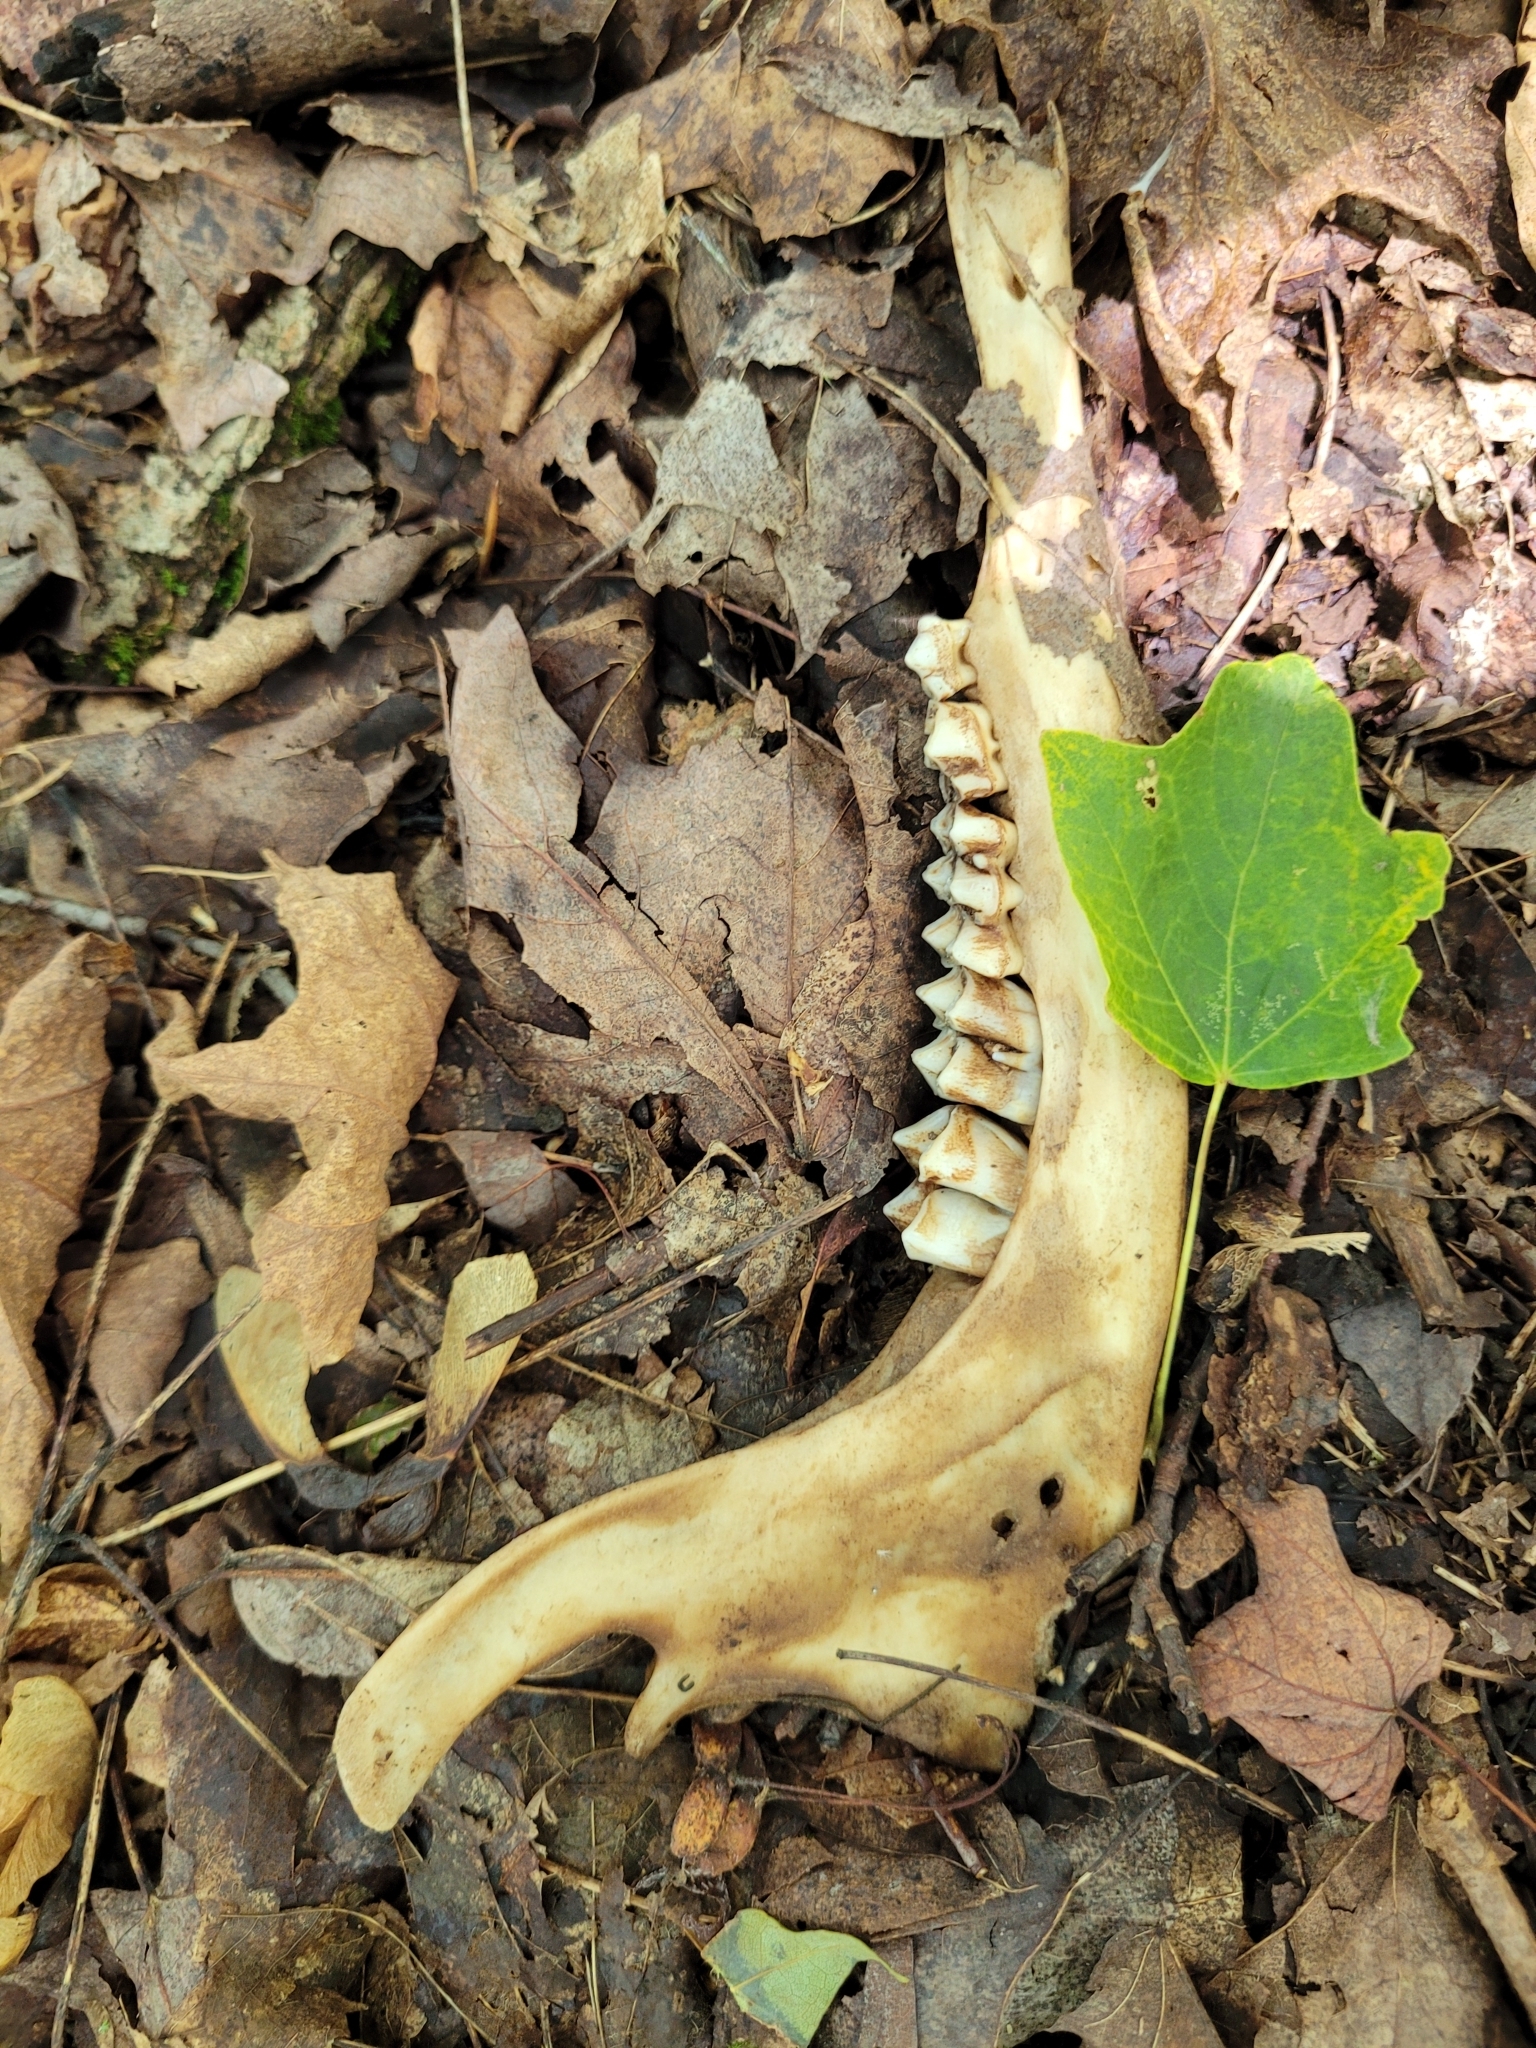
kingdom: Animalia
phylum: Chordata
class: Mammalia
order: Artiodactyla
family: Cervidae
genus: Odocoileus
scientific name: Odocoileus virginianus
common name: White-tailed deer
